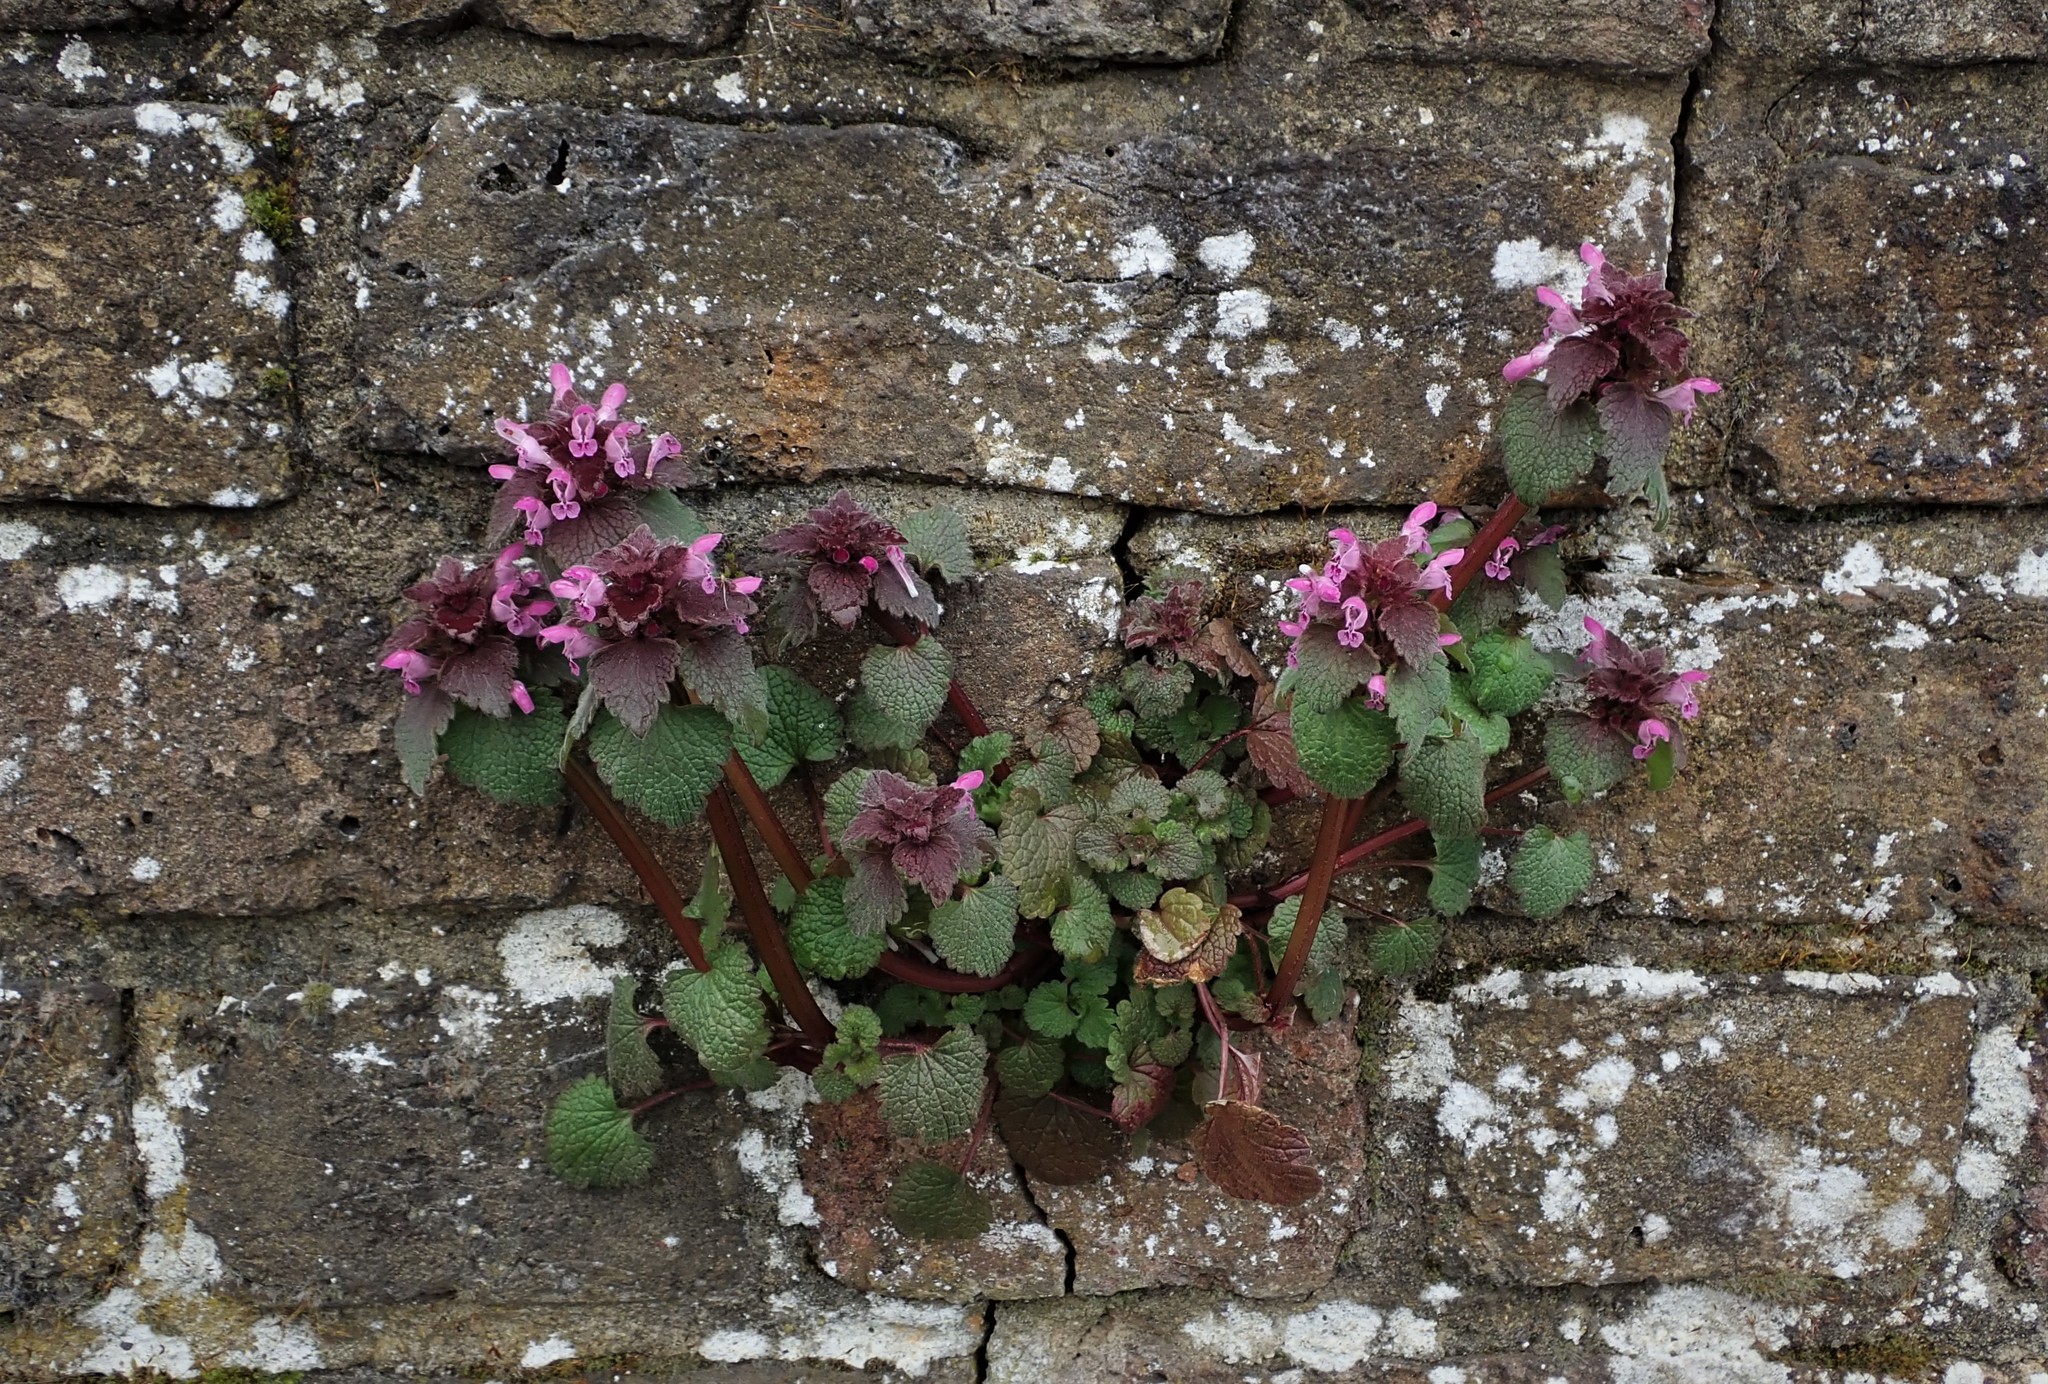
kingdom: Plantae
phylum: Tracheophyta
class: Magnoliopsida
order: Lamiales
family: Lamiaceae
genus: Lamium
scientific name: Lamium purpureum
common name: Red dead-nettle
